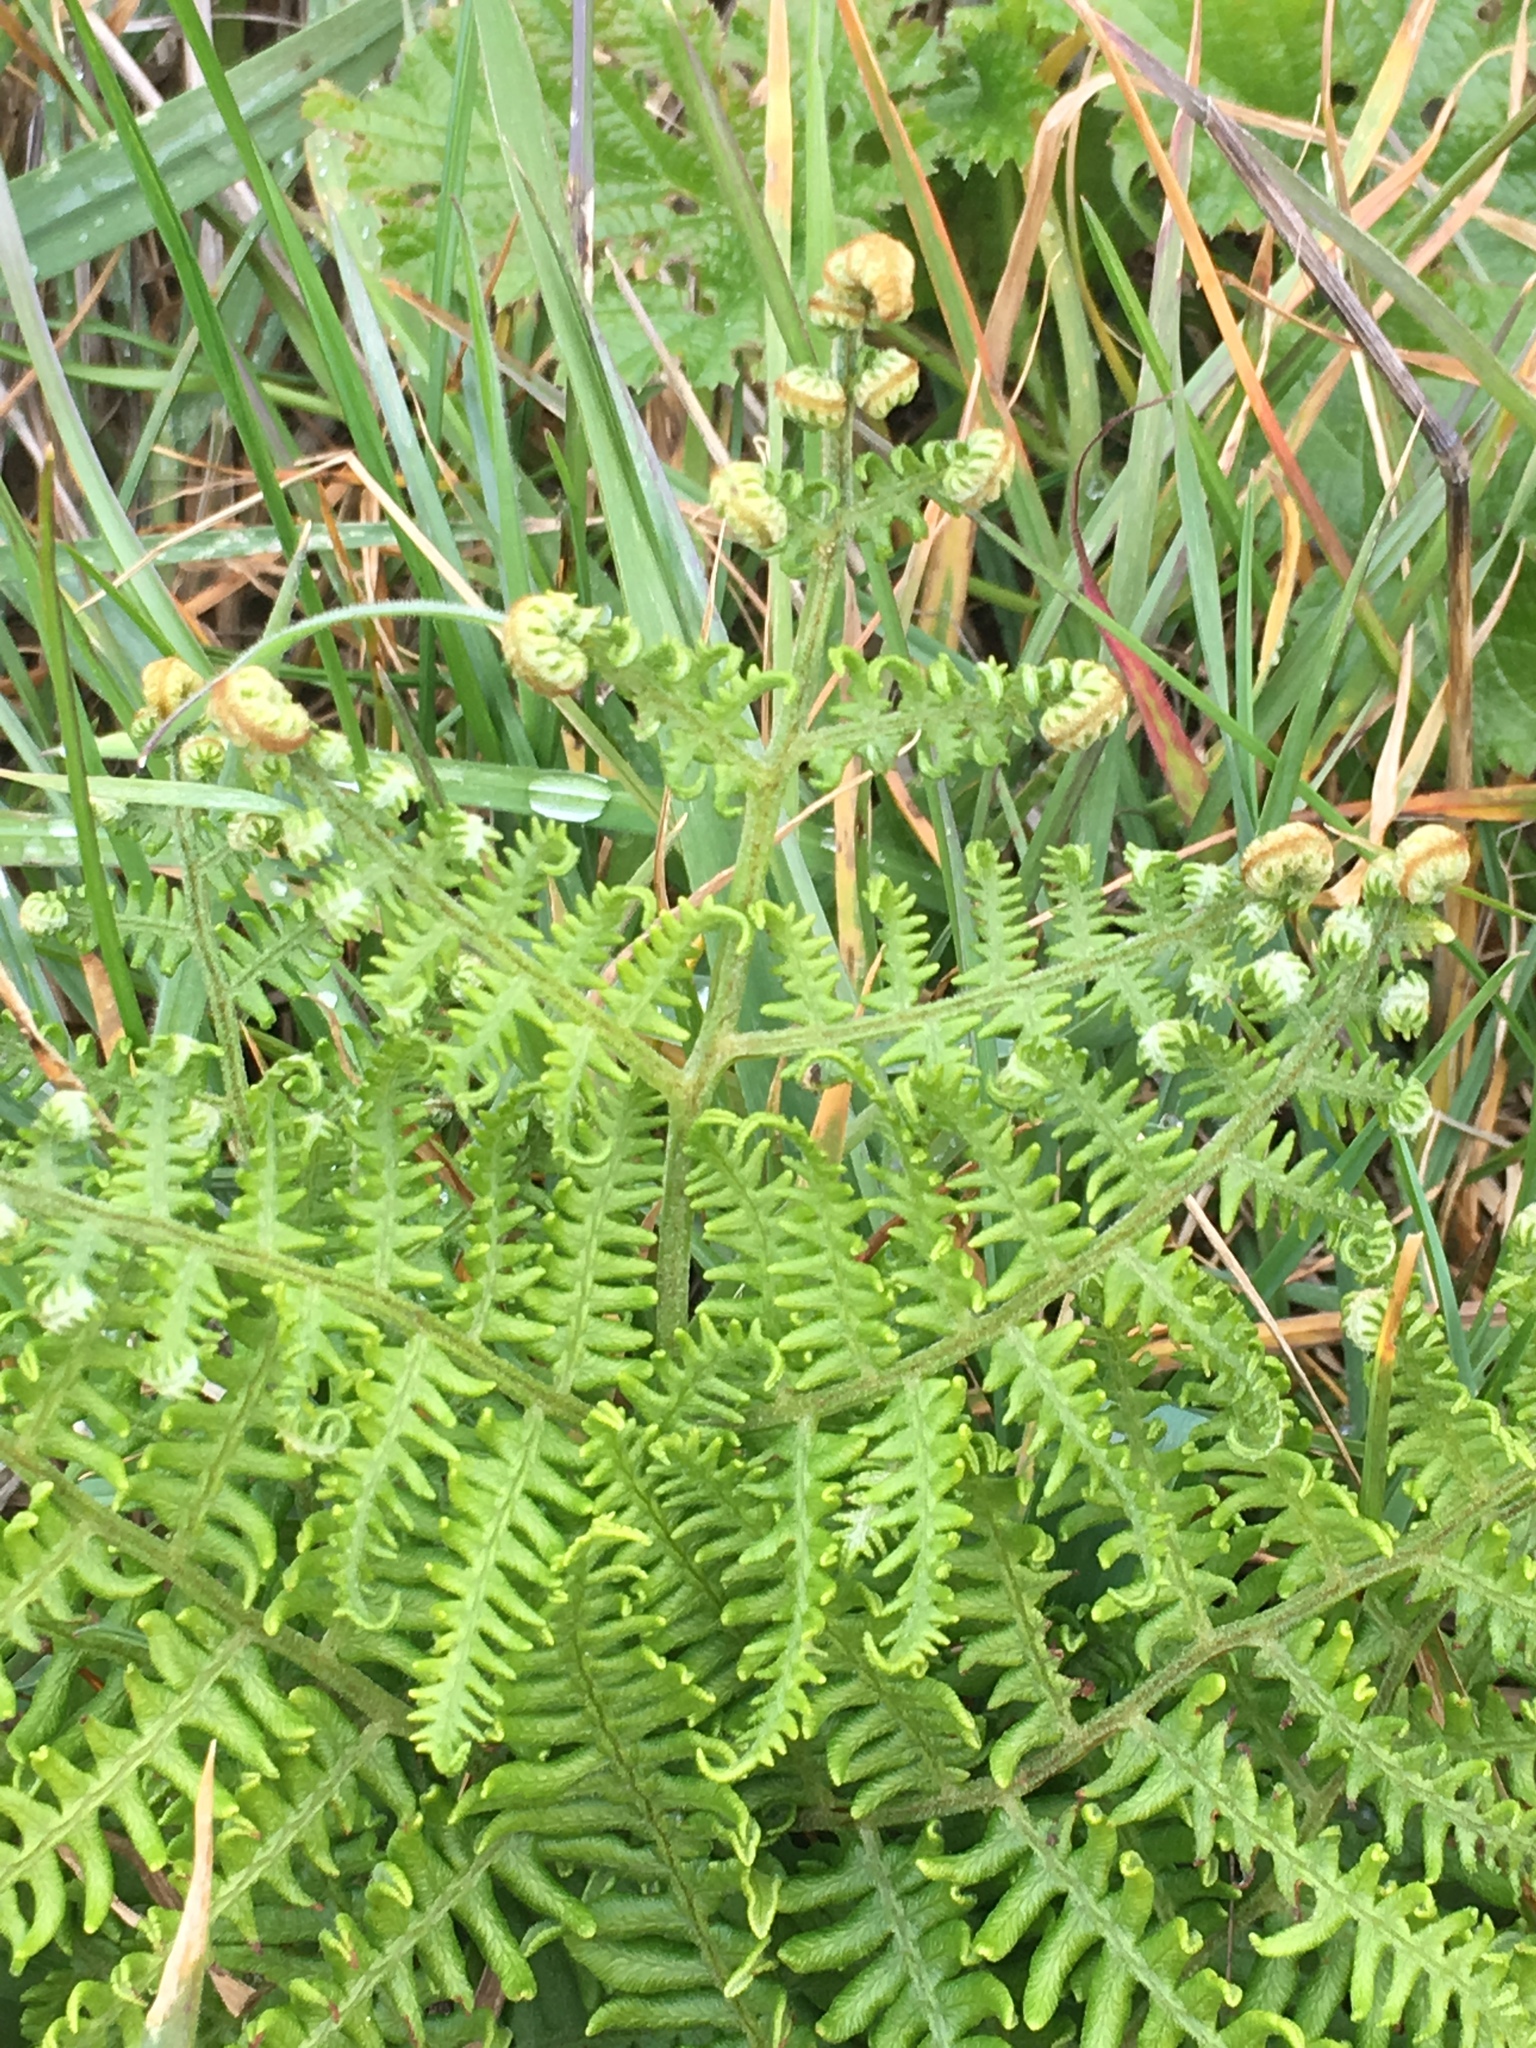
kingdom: Plantae
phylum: Tracheophyta
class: Polypodiopsida
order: Polypodiales
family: Dennstaedtiaceae
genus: Pteridium
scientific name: Pteridium aquilinum
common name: Bracken
